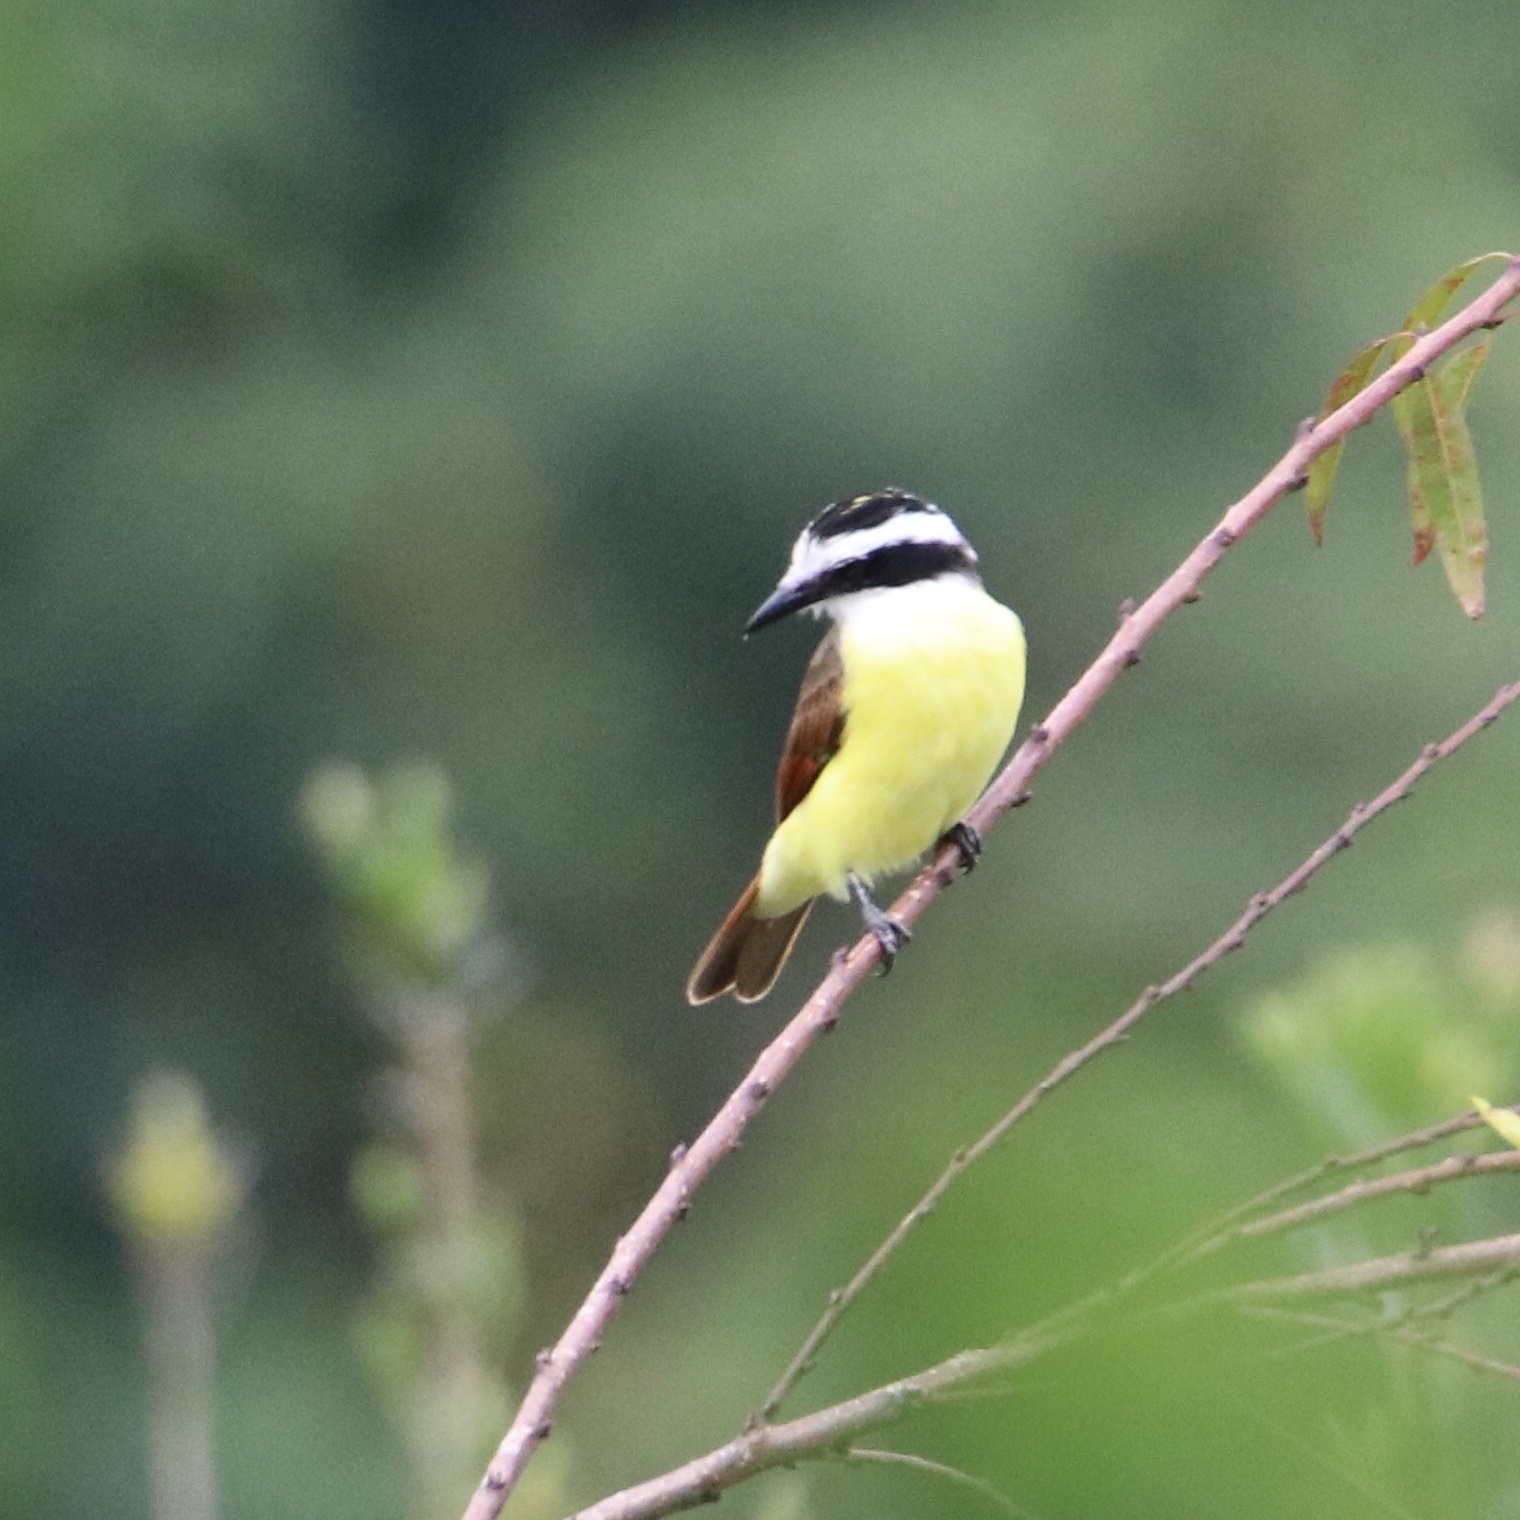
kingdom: Animalia
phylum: Chordata
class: Aves
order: Passeriformes
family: Tyrannidae
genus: Pitangus
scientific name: Pitangus sulphuratus
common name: Great kiskadee
